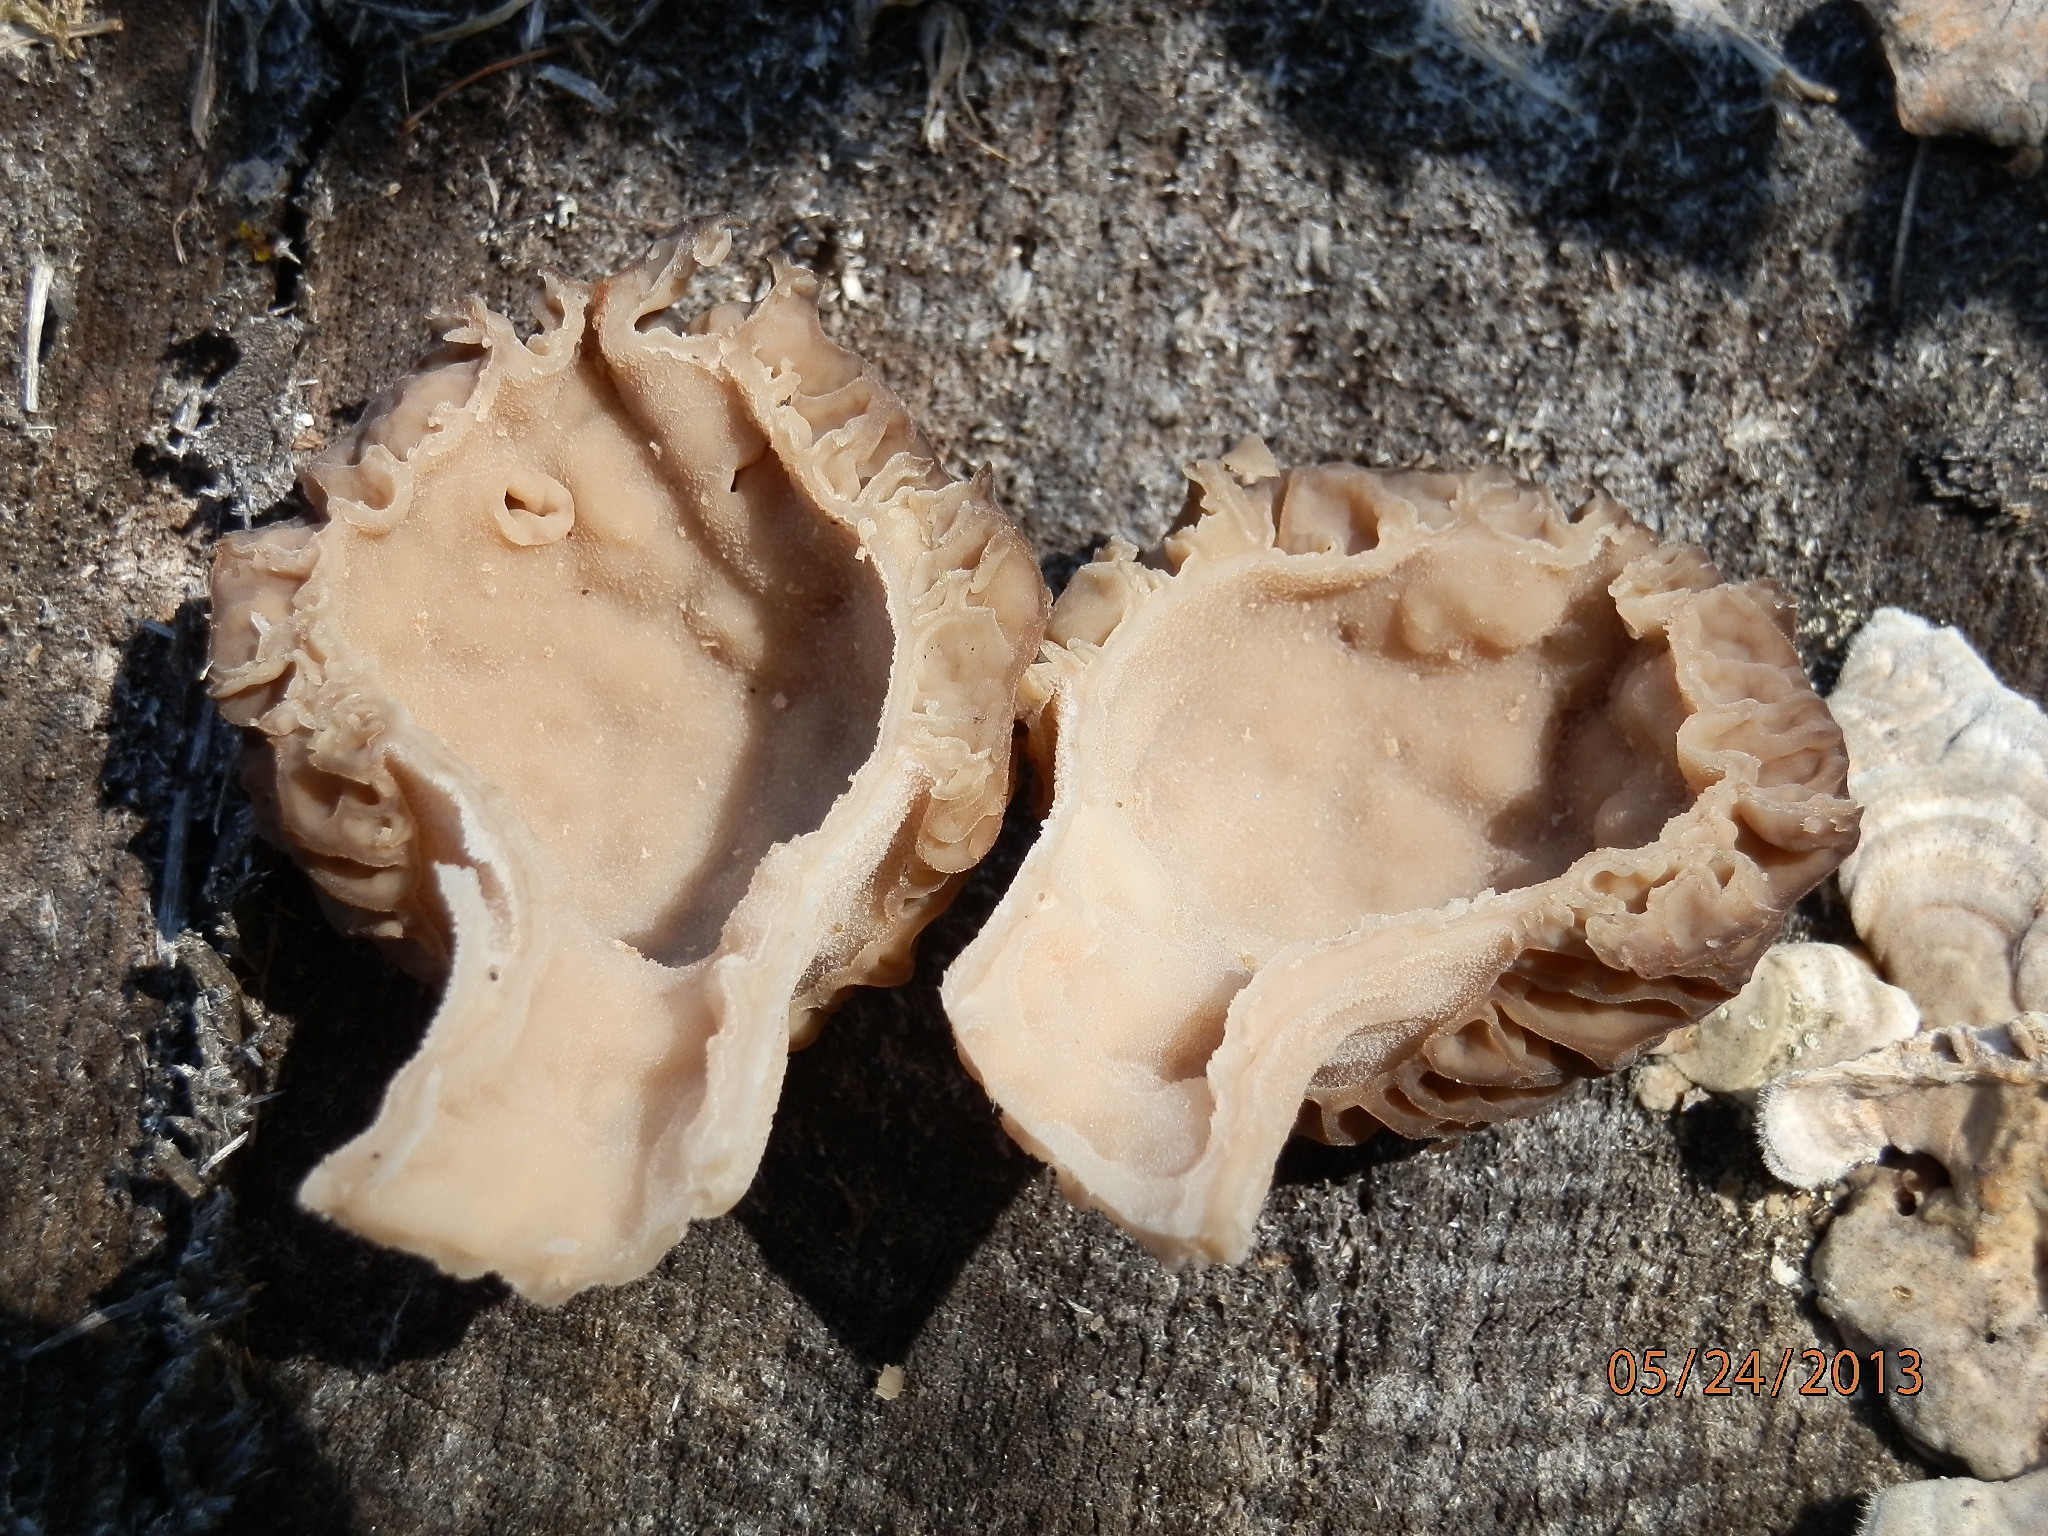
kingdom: Fungi
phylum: Ascomycota
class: Pezizomycetes
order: Pezizales
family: Morchellaceae
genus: Morchella
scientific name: Morchella septentrionalis
